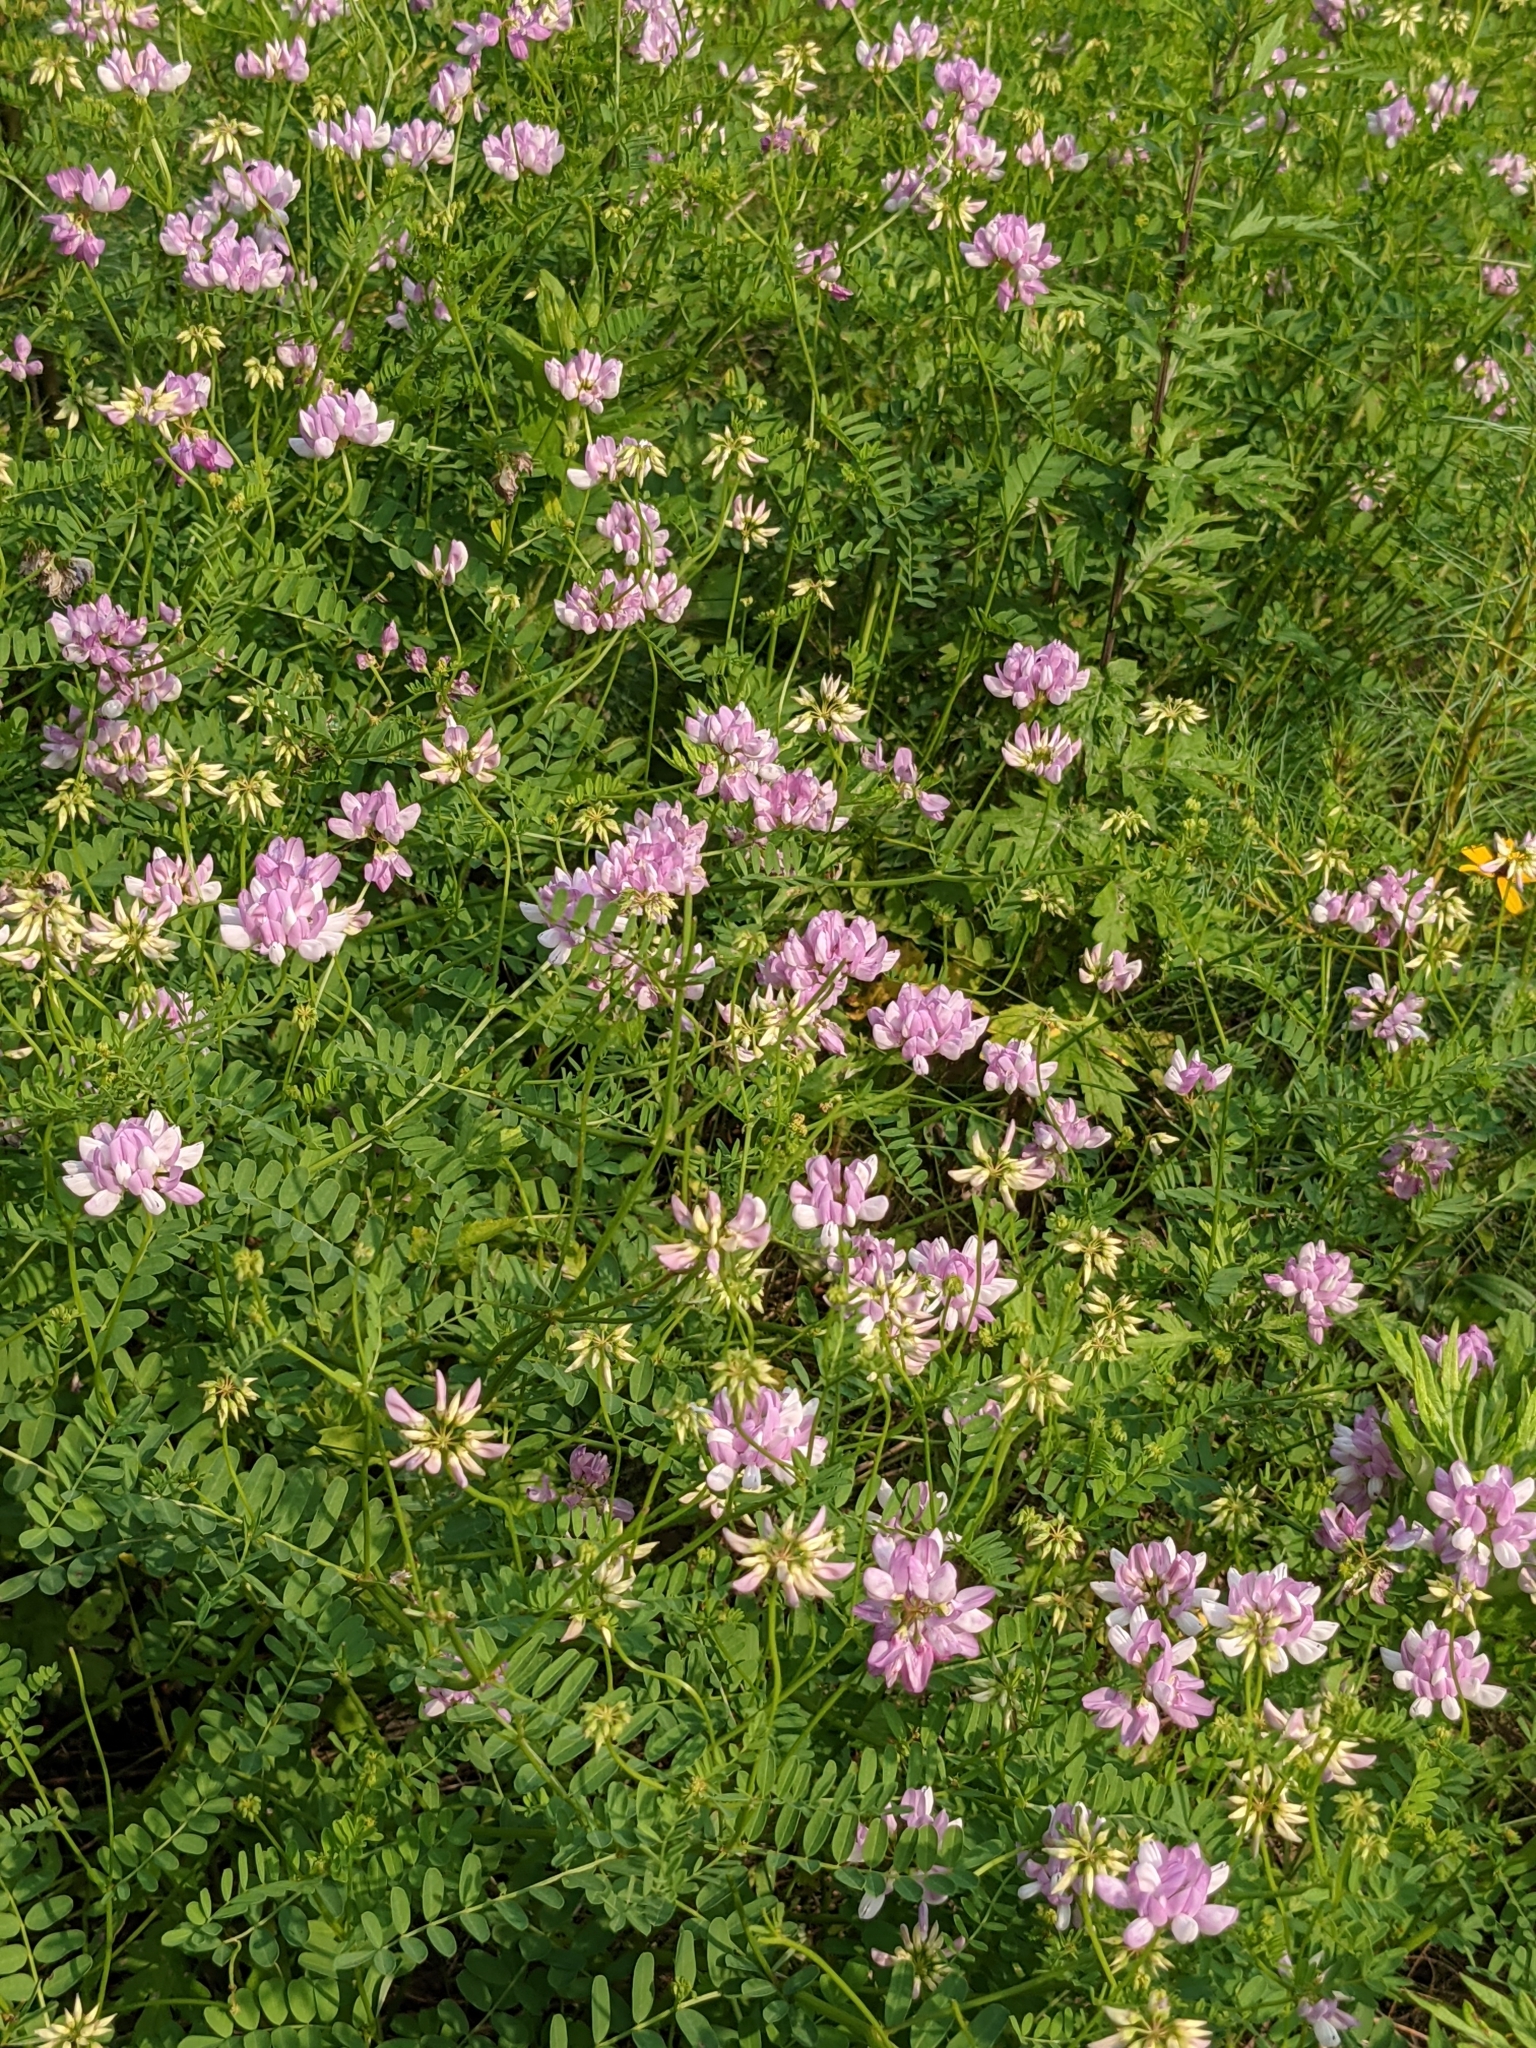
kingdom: Plantae
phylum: Tracheophyta
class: Magnoliopsida
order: Fabales
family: Fabaceae
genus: Coronilla
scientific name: Coronilla varia
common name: Crownvetch
